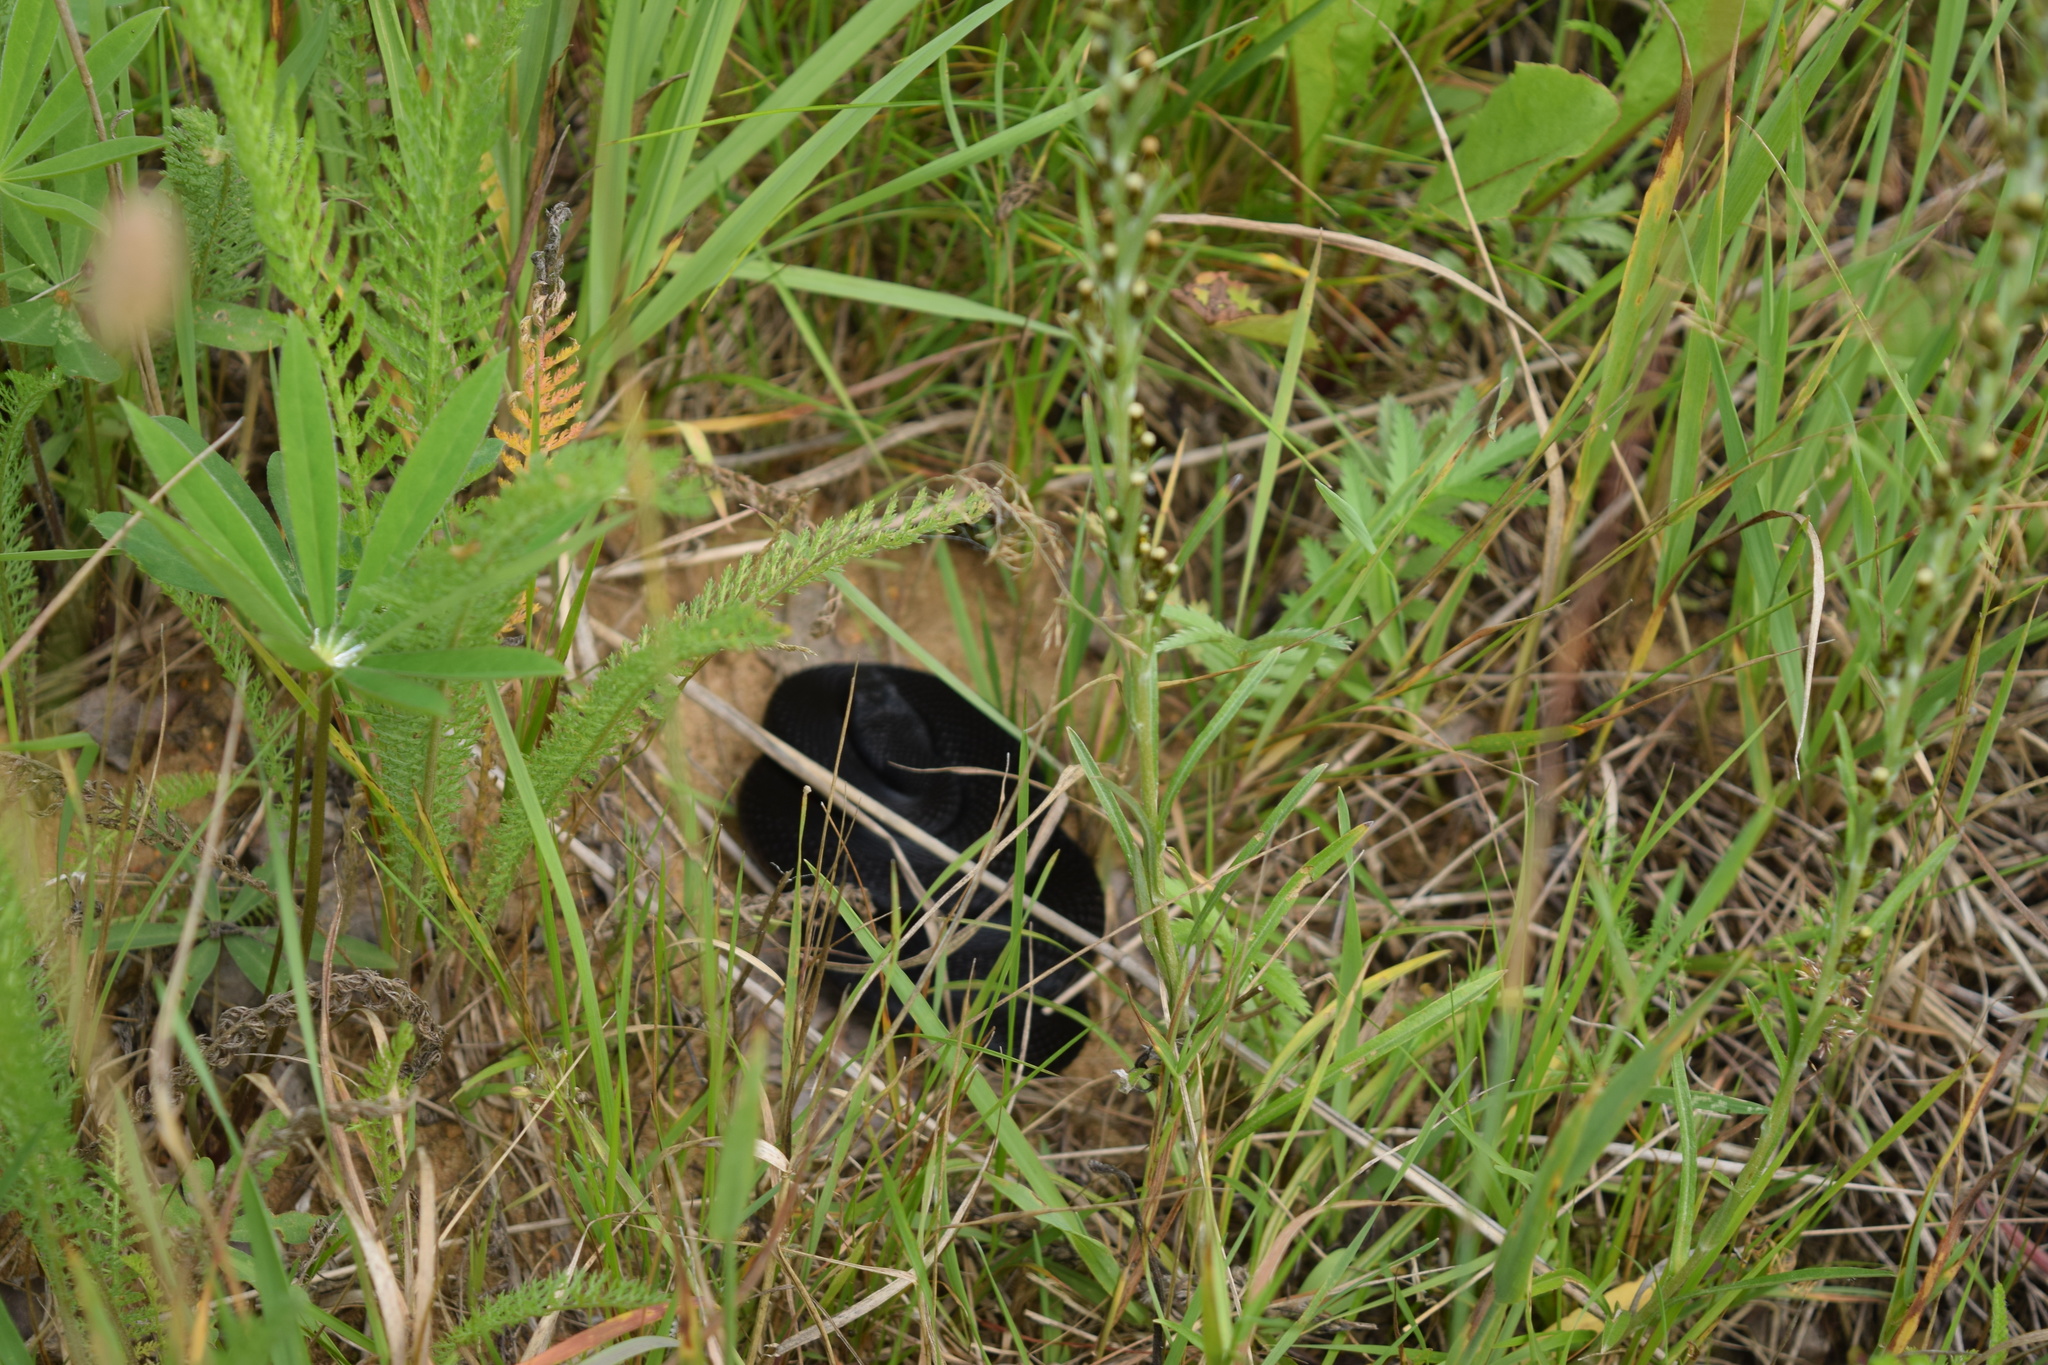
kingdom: Animalia
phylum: Chordata
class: Squamata
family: Viperidae
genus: Vipera
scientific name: Vipera berus
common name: Adder
